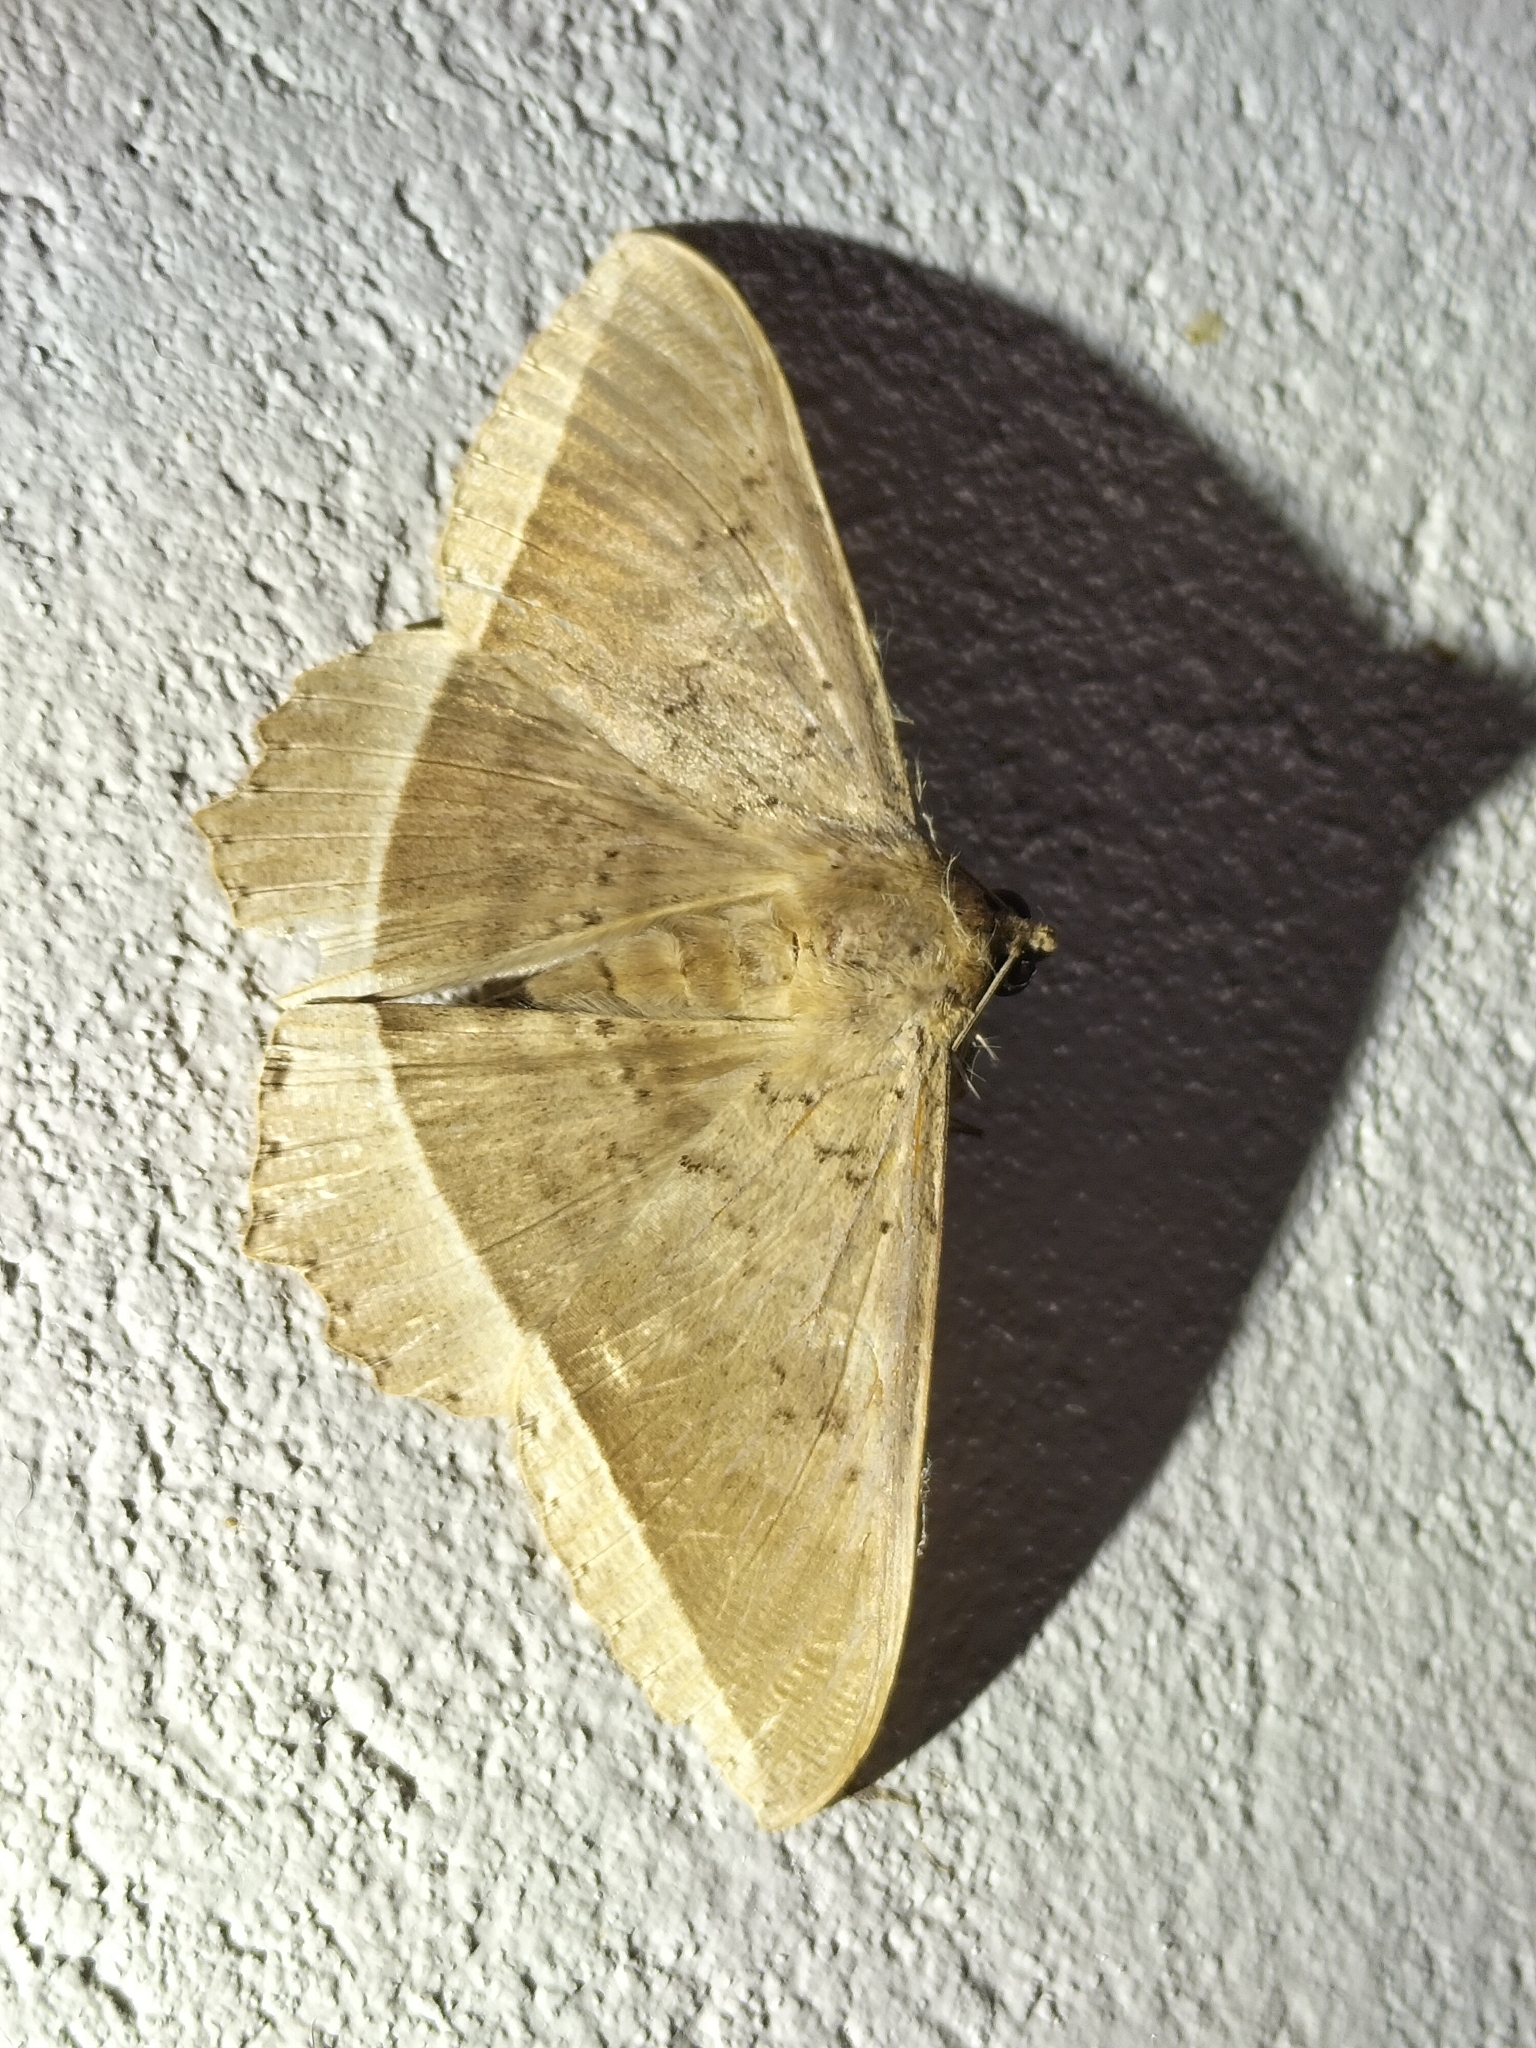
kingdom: Animalia
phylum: Arthropoda
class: Insecta
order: Lepidoptera
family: Erebidae
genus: Hulodes
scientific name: Hulodes caranea
